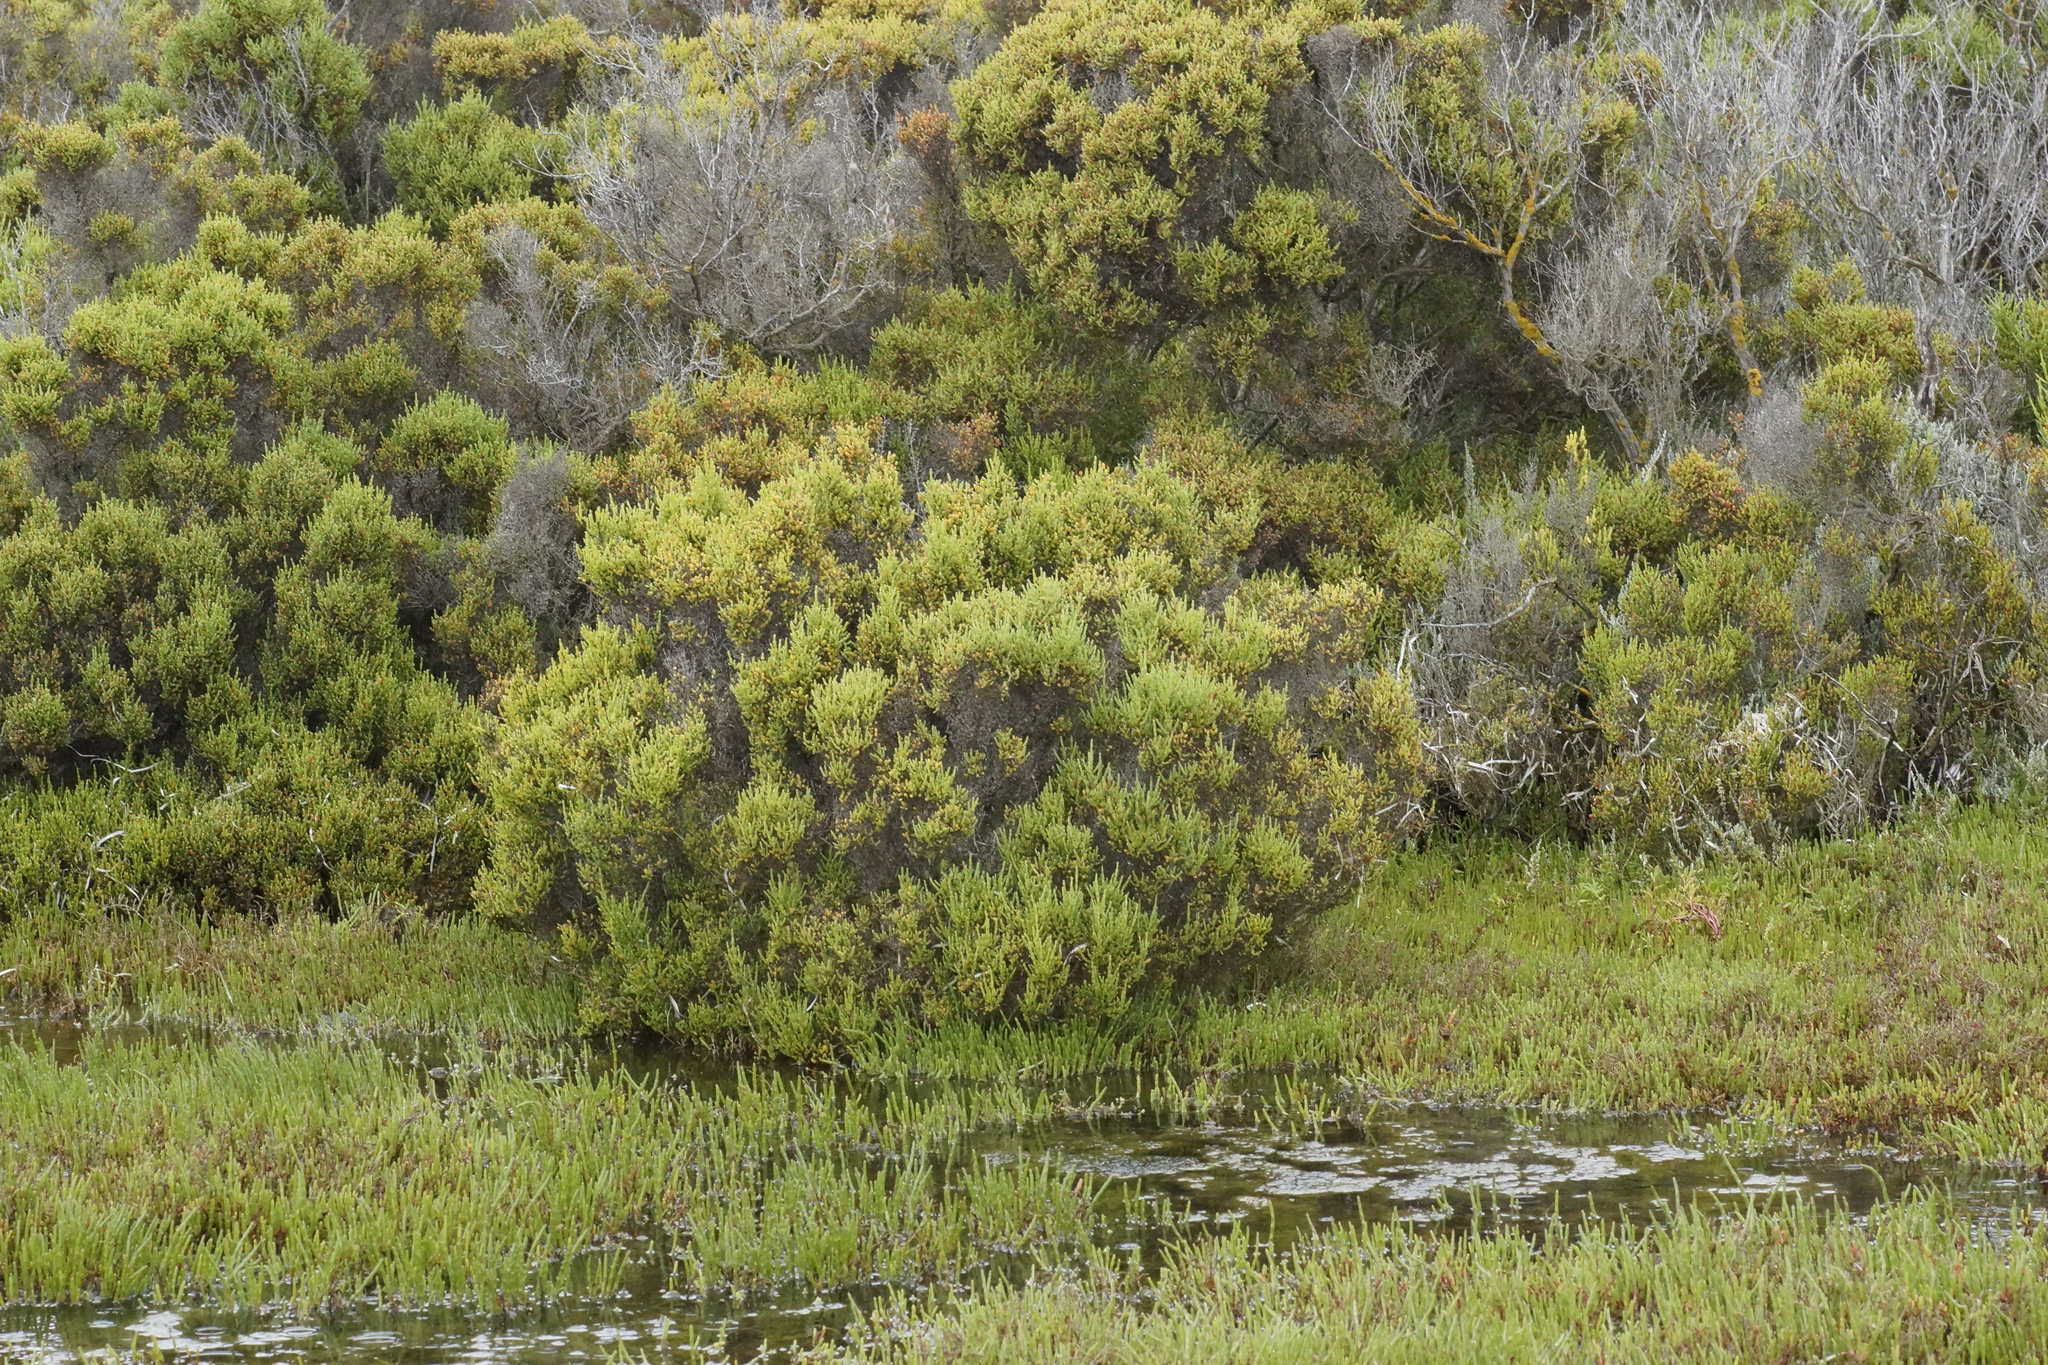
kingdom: Plantae
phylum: Tracheophyta
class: Magnoliopsida
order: Caryophyllales
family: Amaranthaceae
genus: Tecticornia
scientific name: Tecticornia arbuscula
